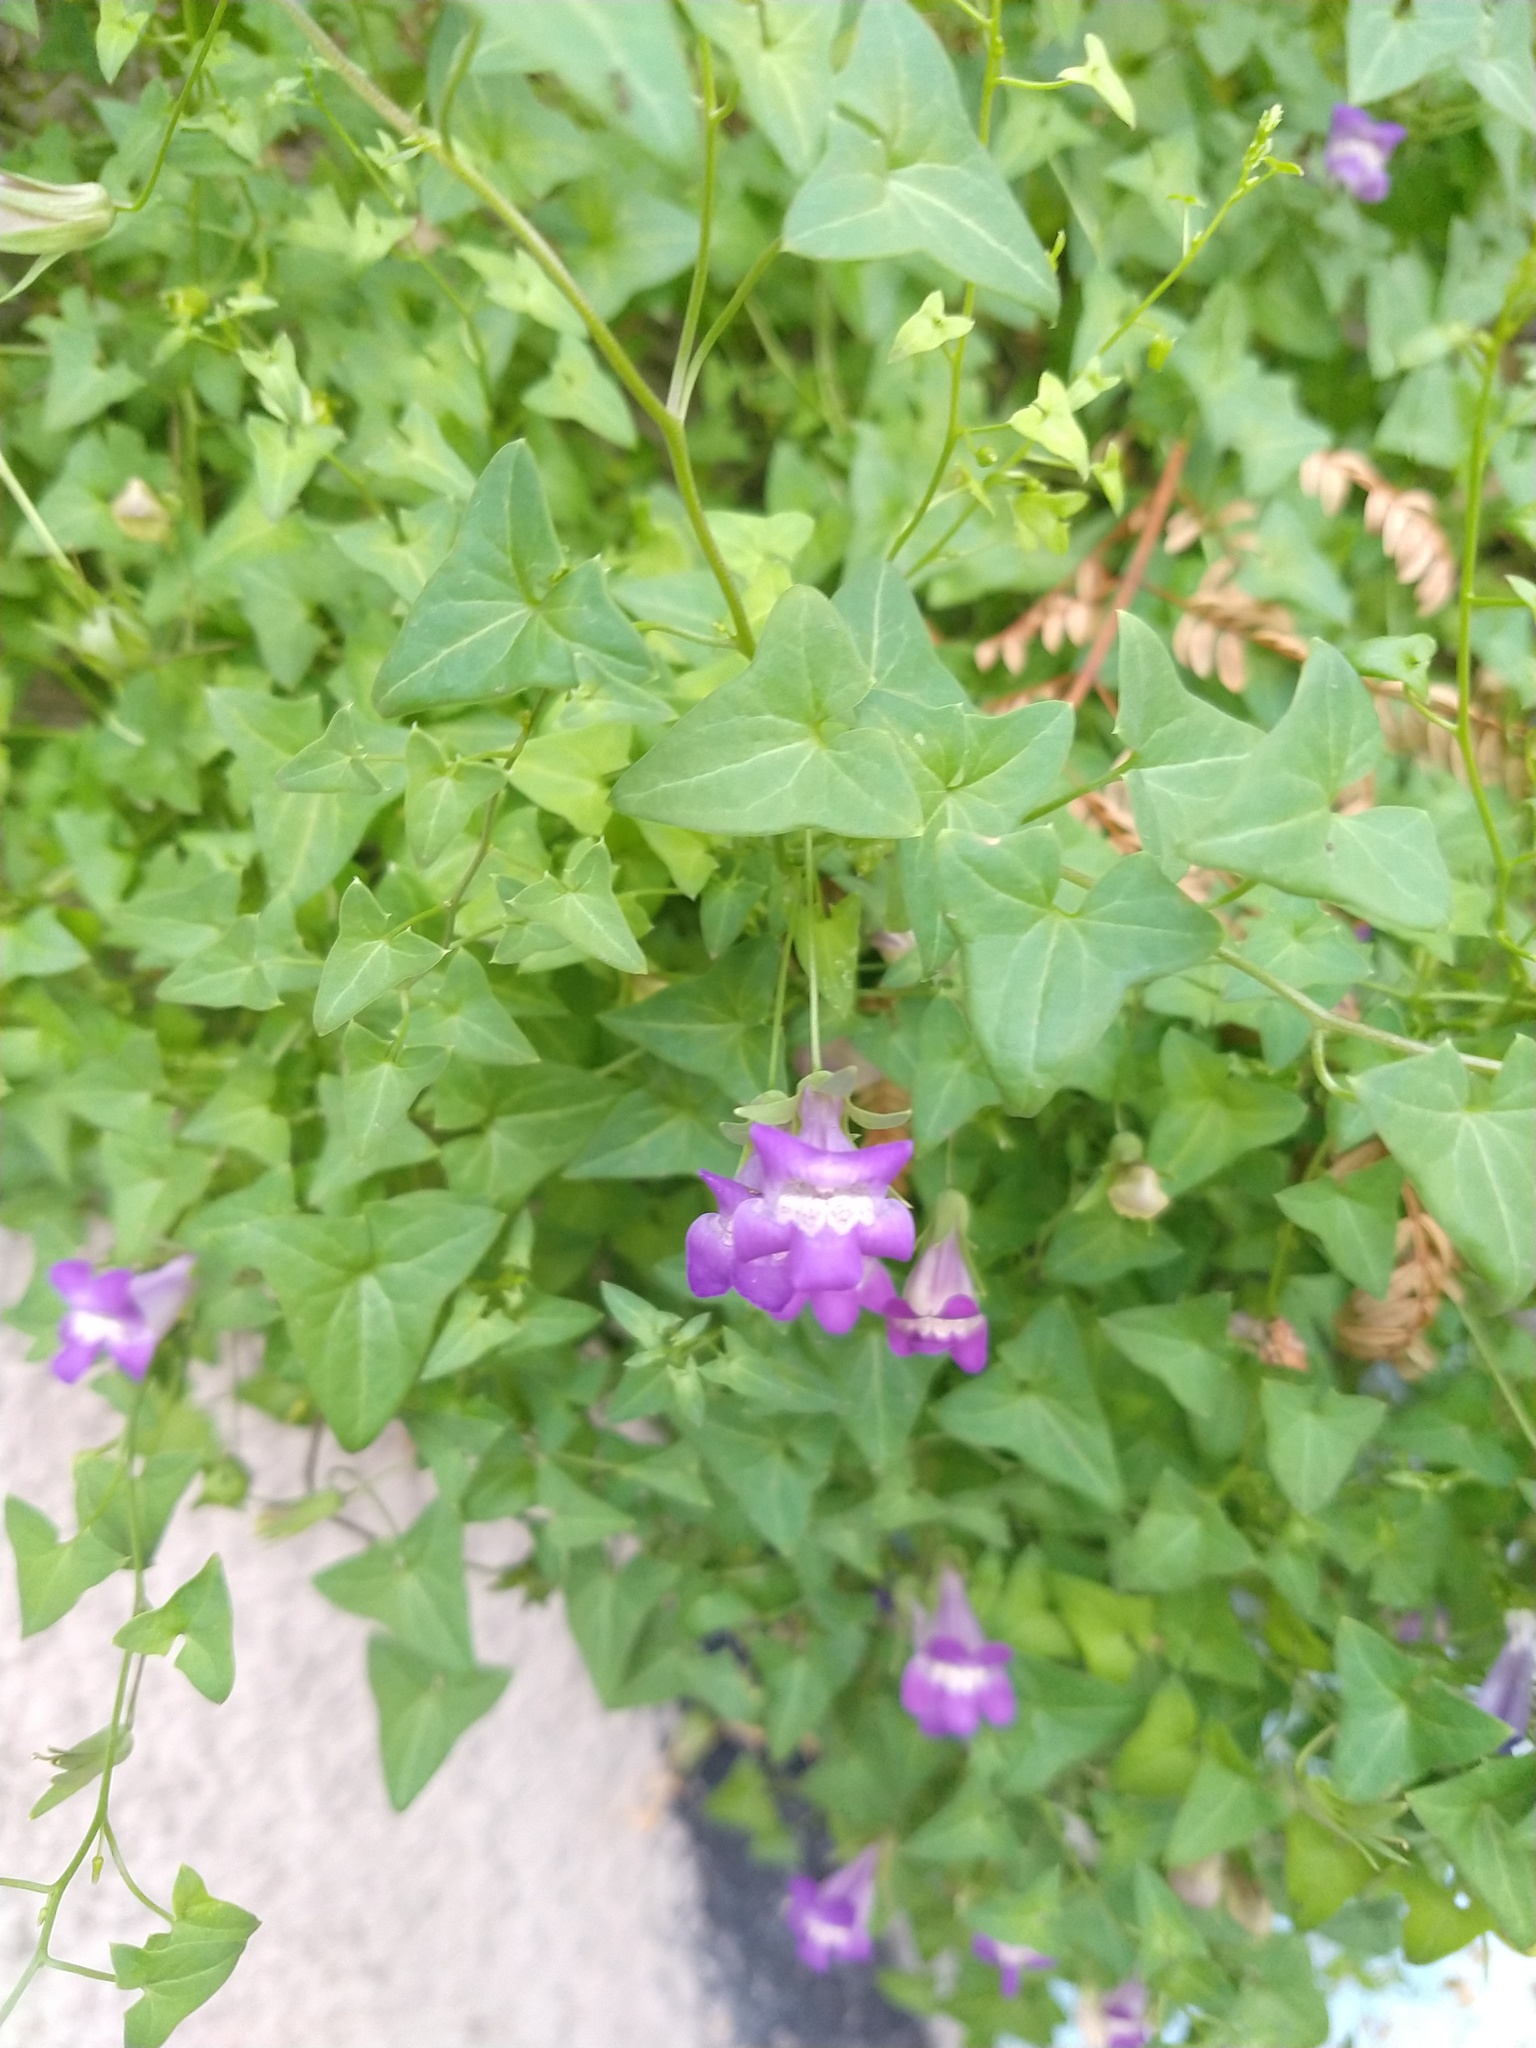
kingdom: Plantae
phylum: Tracheophyta
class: Magnoliopsida
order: Lamiales
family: Plantaginaceae
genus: Maurandella
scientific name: Maurandella antirrhiniflora
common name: Violet twining-snapdragon
